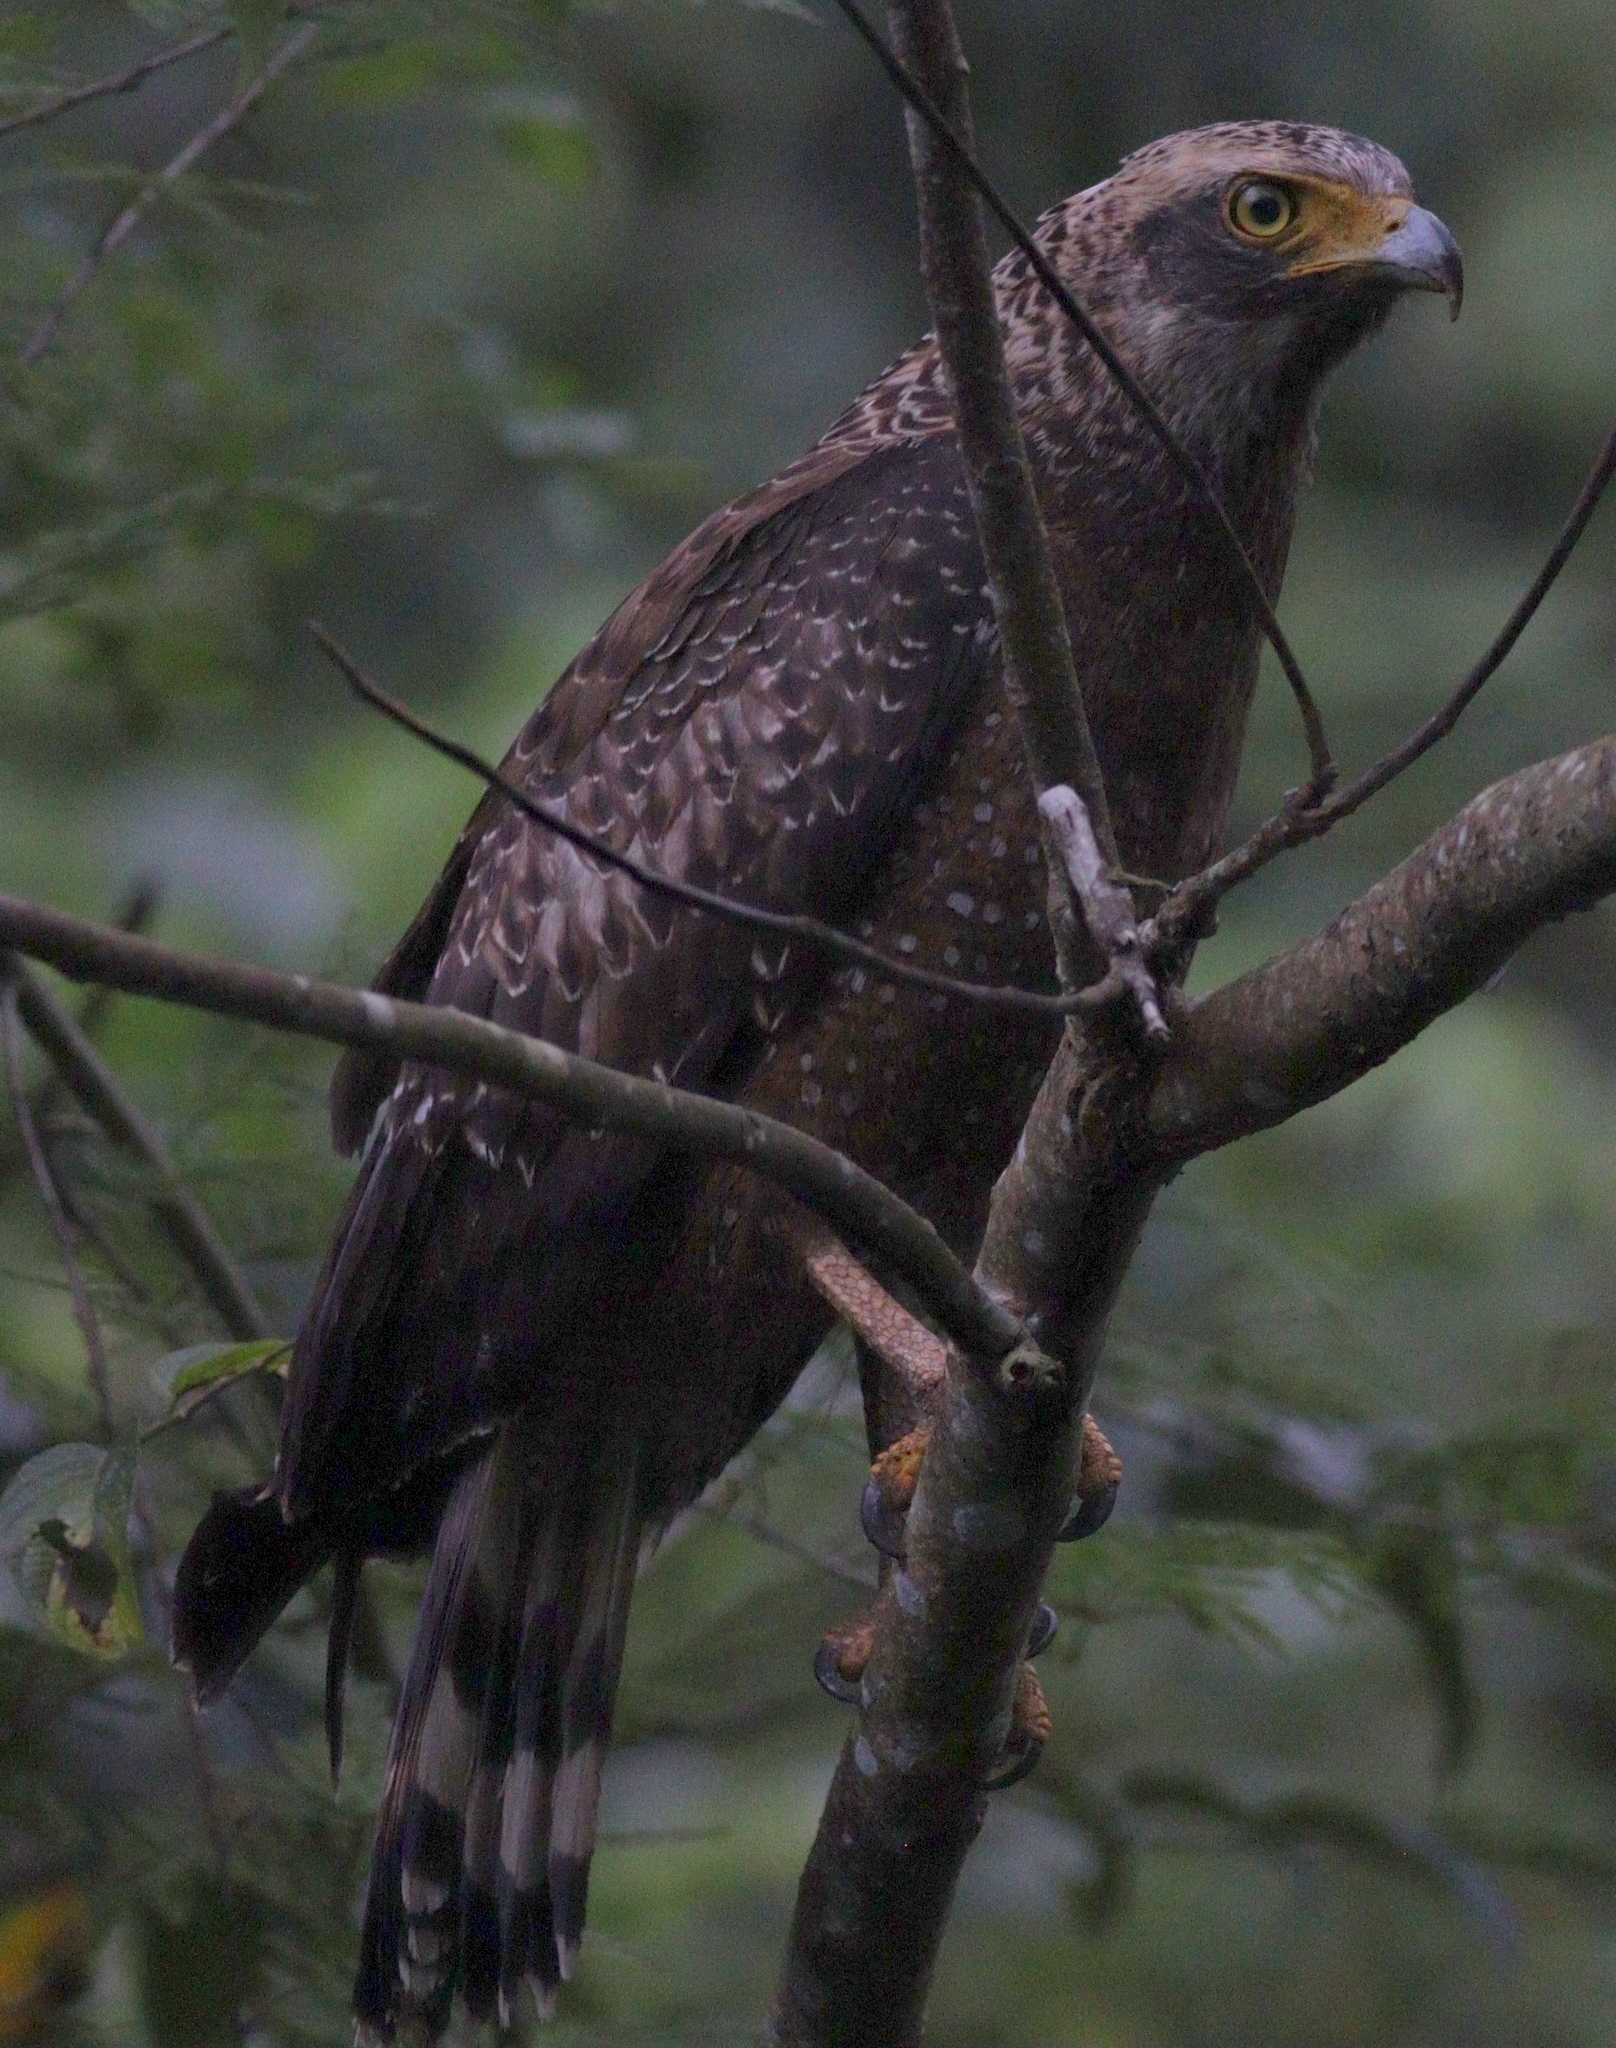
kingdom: Animalia
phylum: Chordata
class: Aves
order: Accipitriformes
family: Accipitridae
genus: Spilornis
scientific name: Spilornis cheela
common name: Crested serpent eagle
